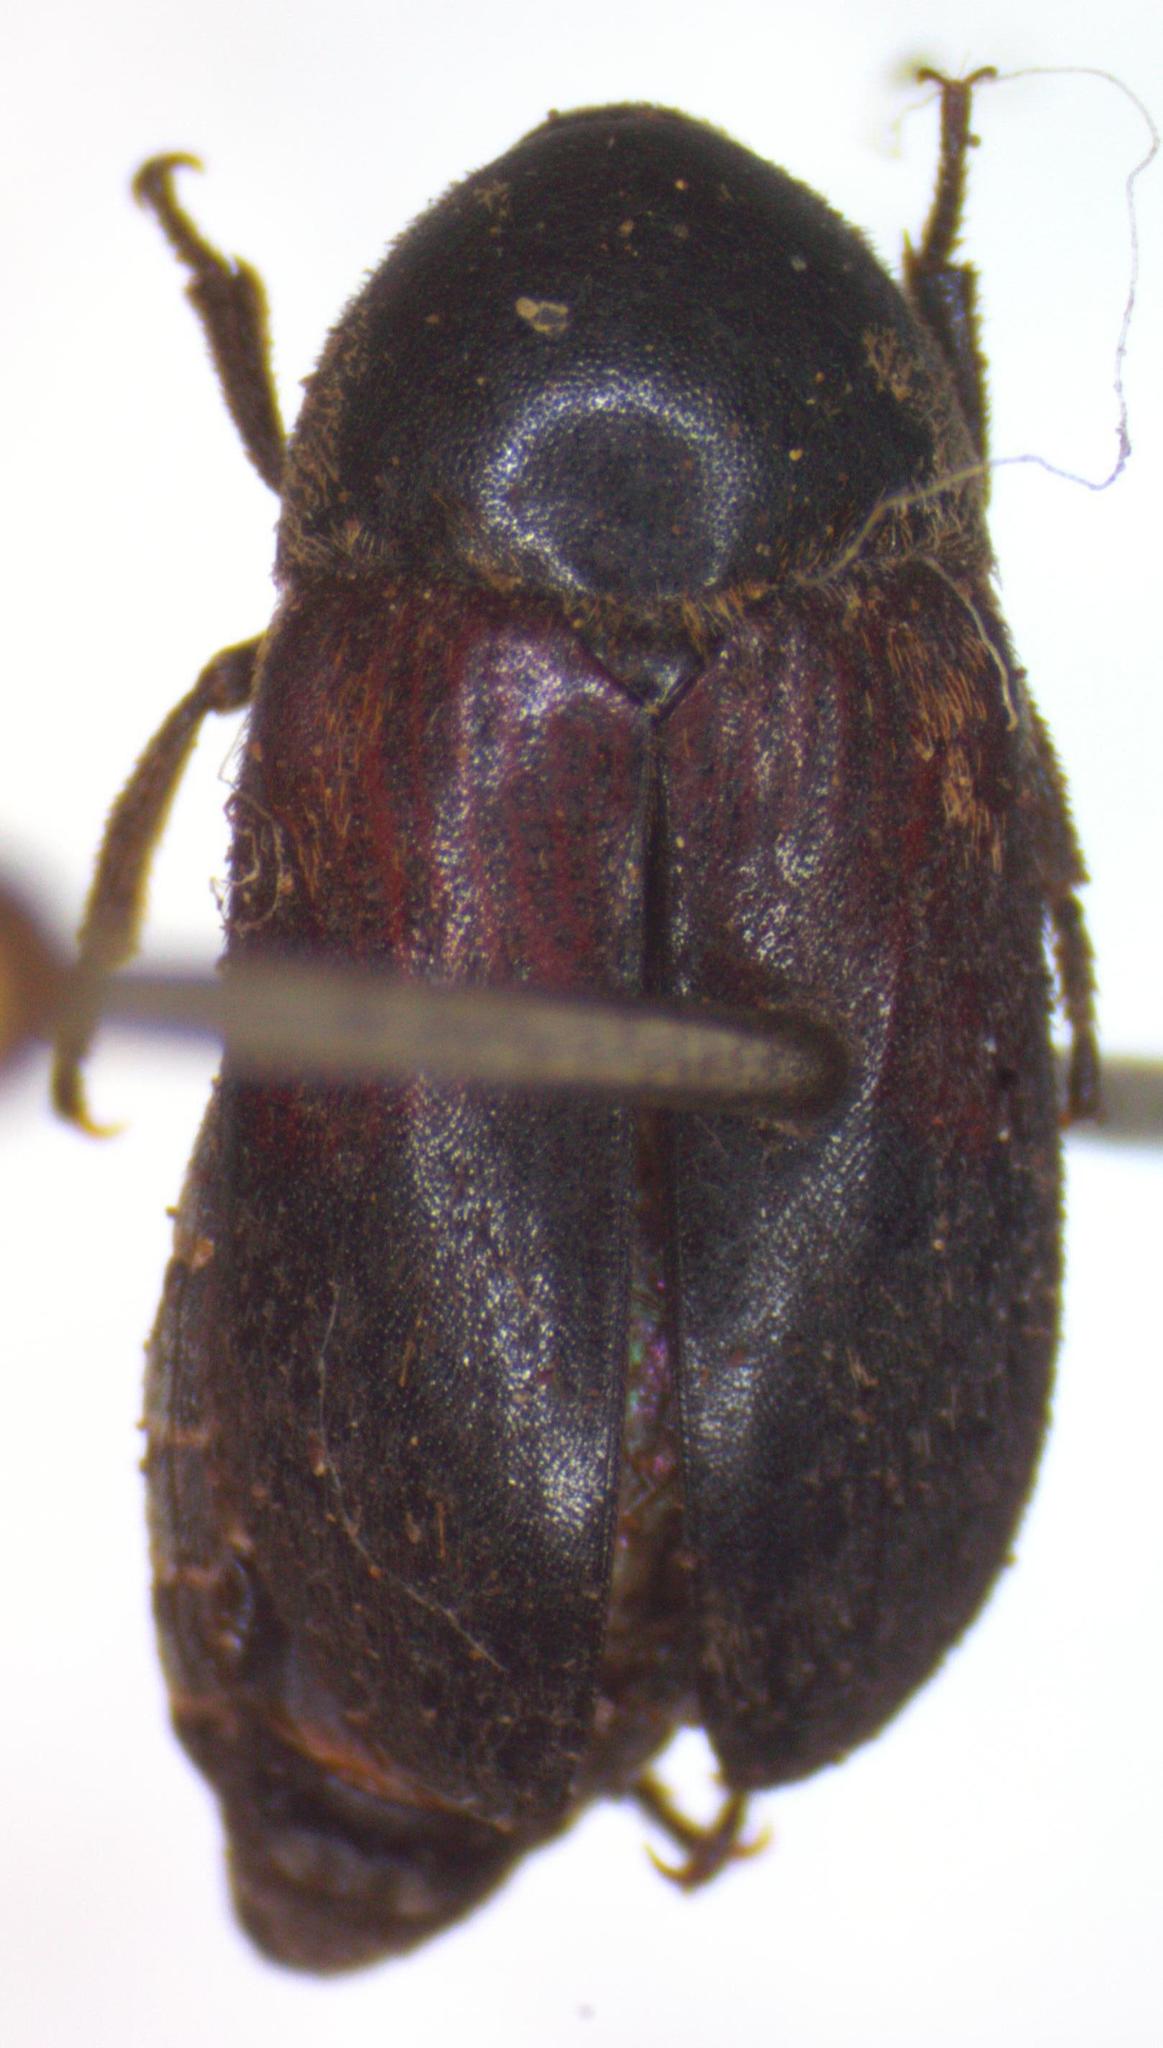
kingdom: Animalia
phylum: Arthropoda
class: Insecta
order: Coleoptera
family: Dermestidae
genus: Dermestes
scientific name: Dermestes carnivorus
